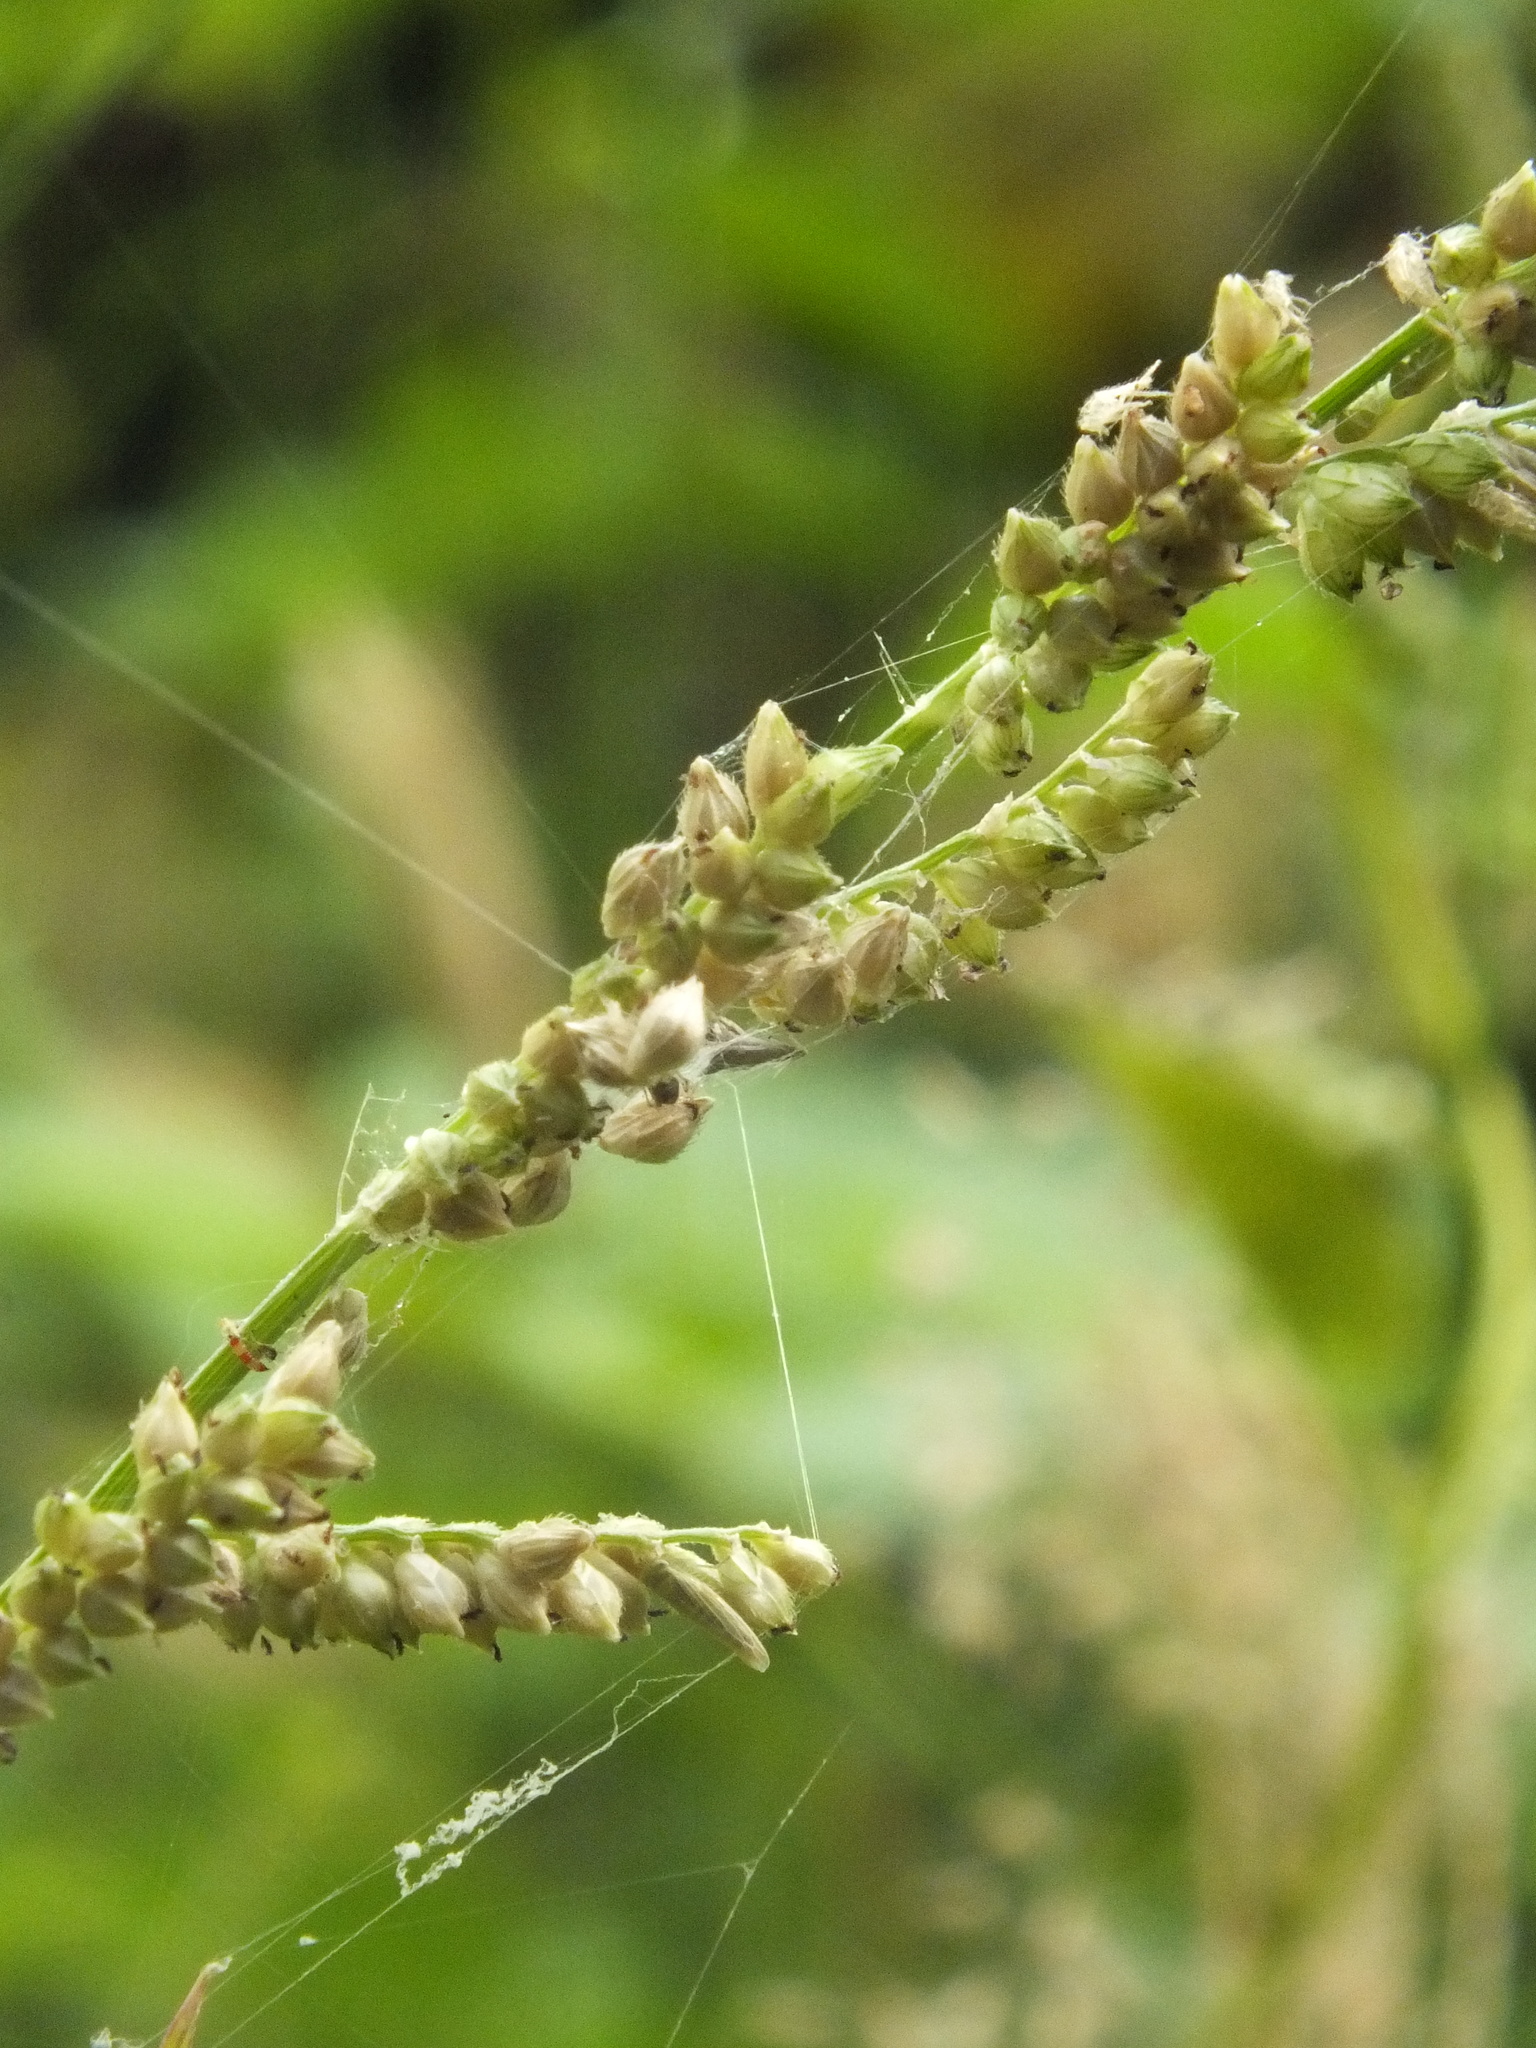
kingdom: Plantae
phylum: Tracheophyta
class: Liliopsida
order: Poales
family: Poaceae
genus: Echinochloa
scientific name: Echinochloa colonum
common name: Jungle rice
